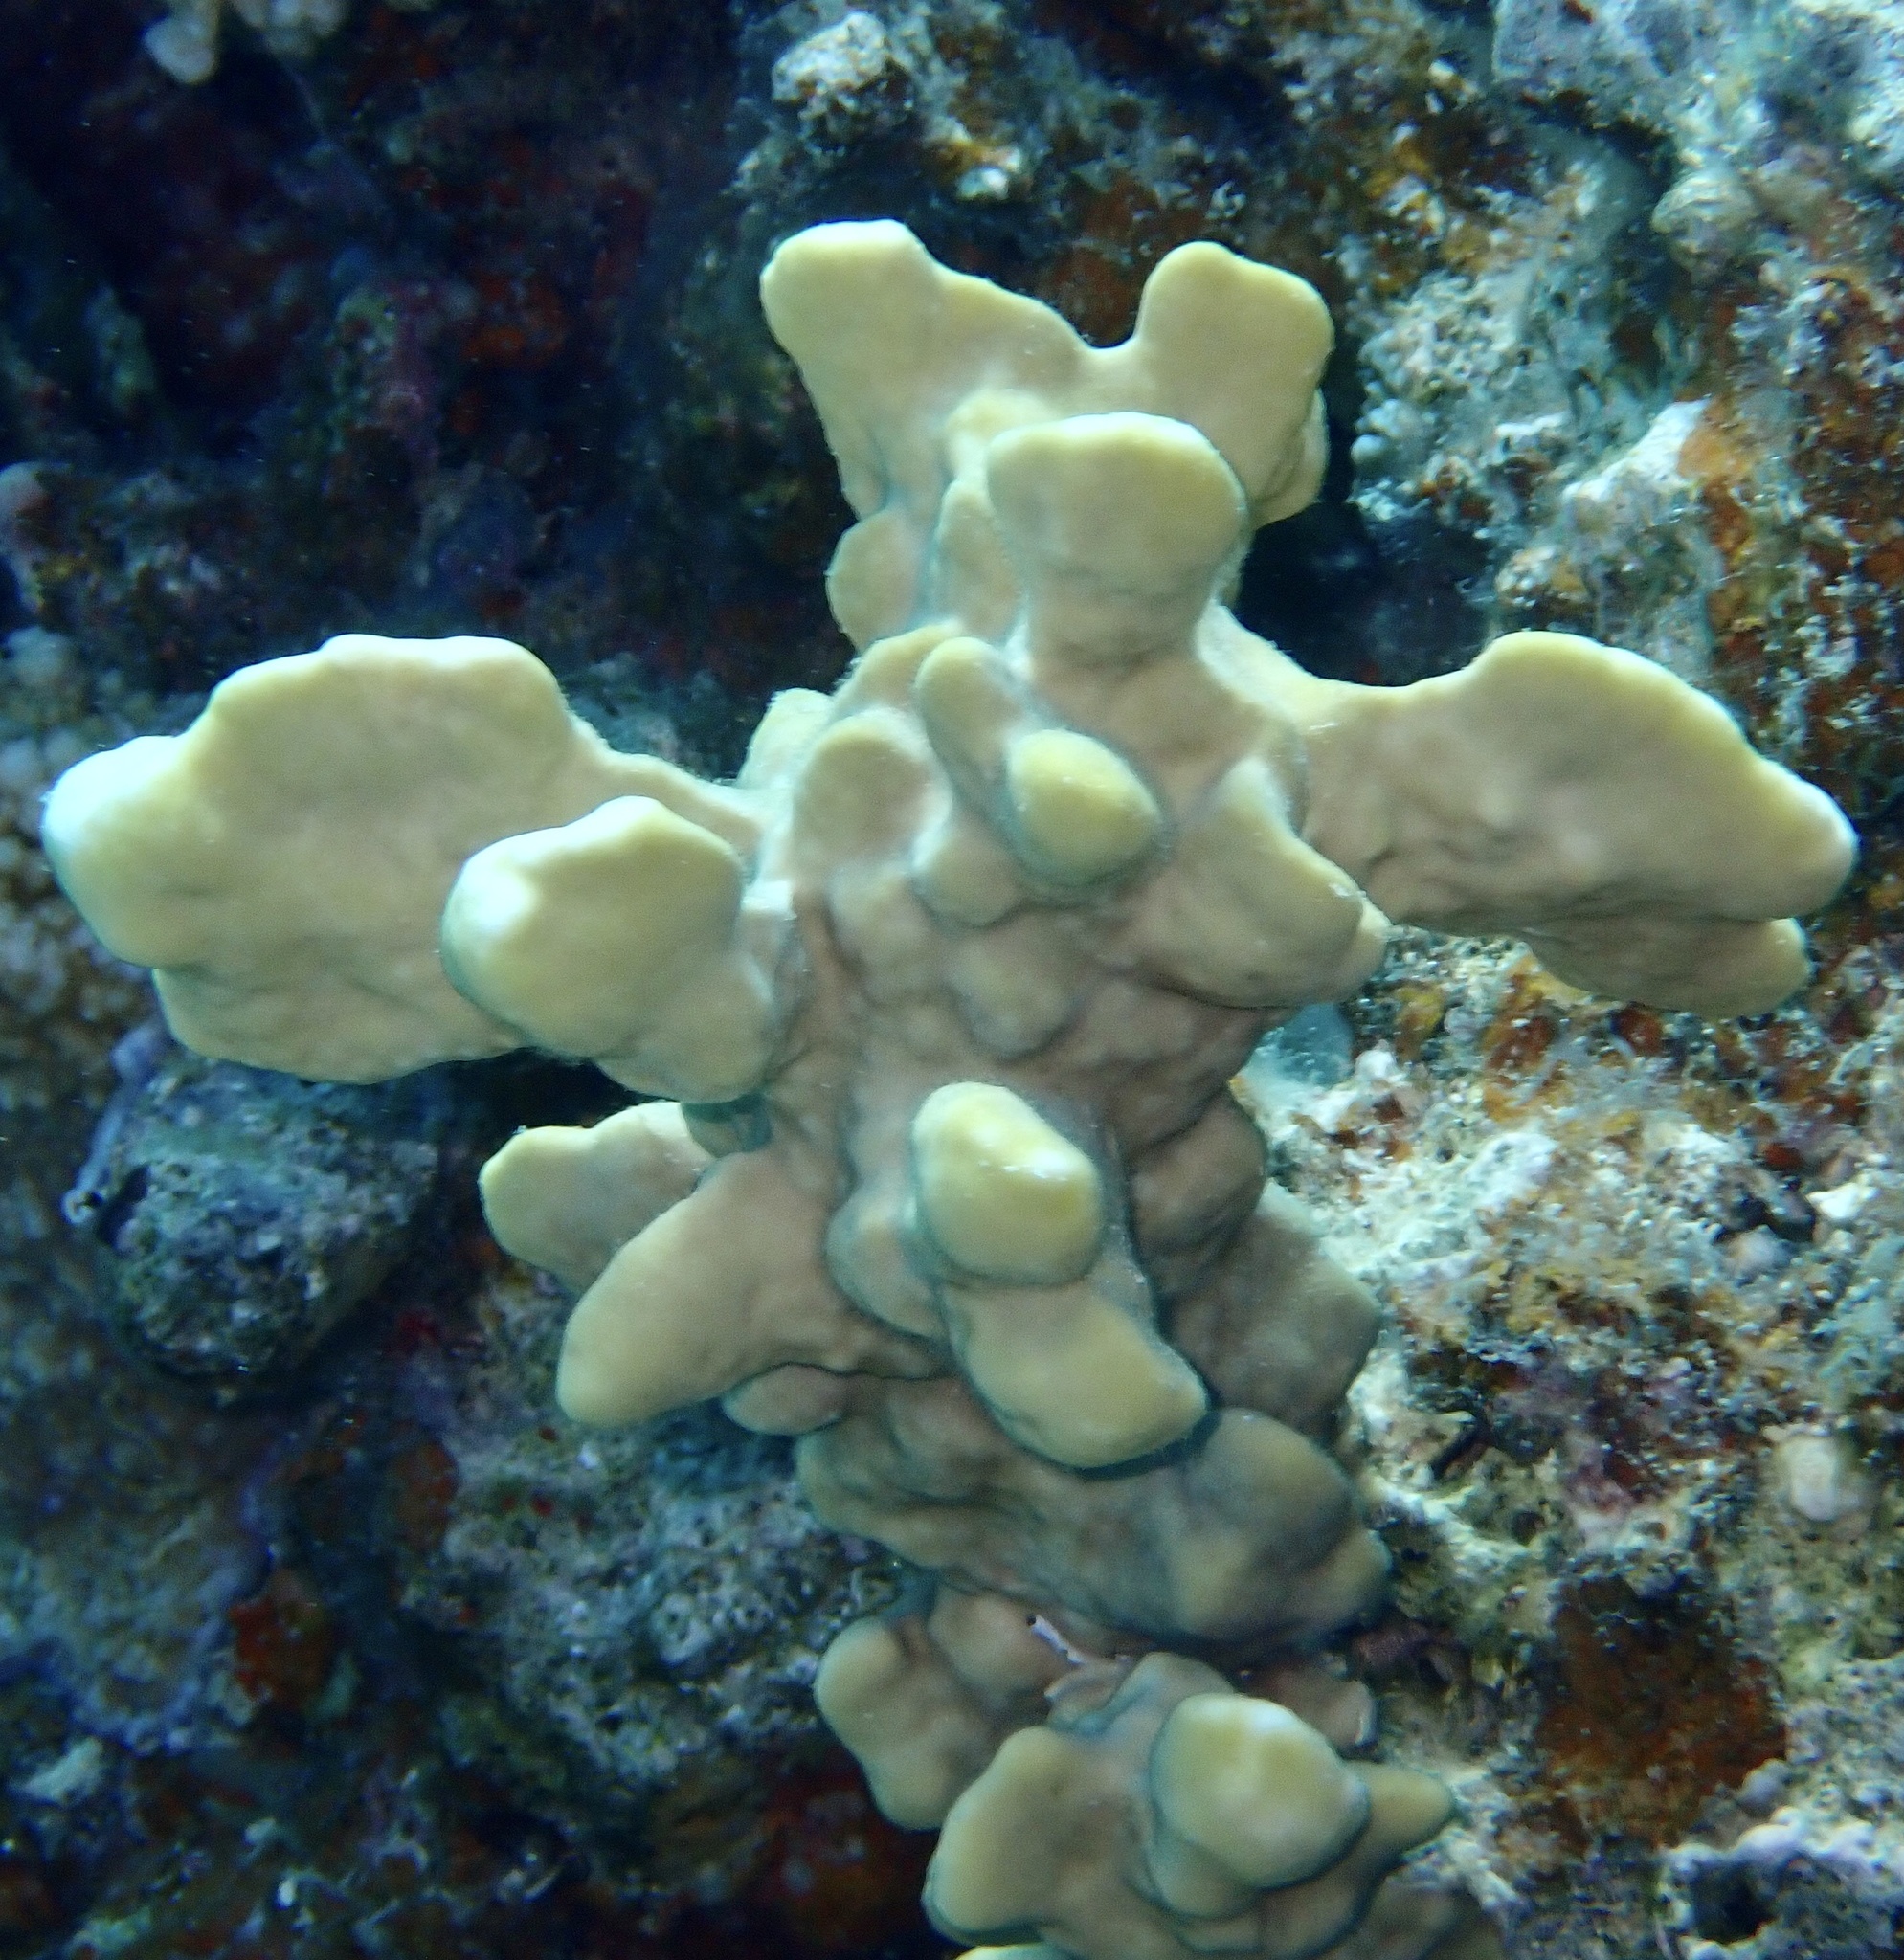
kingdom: Animalia
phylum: Cnidaria
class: Hydrozoa
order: Anthoathecata
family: Milleporidae
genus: Millepora
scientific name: Millepora exaesa
